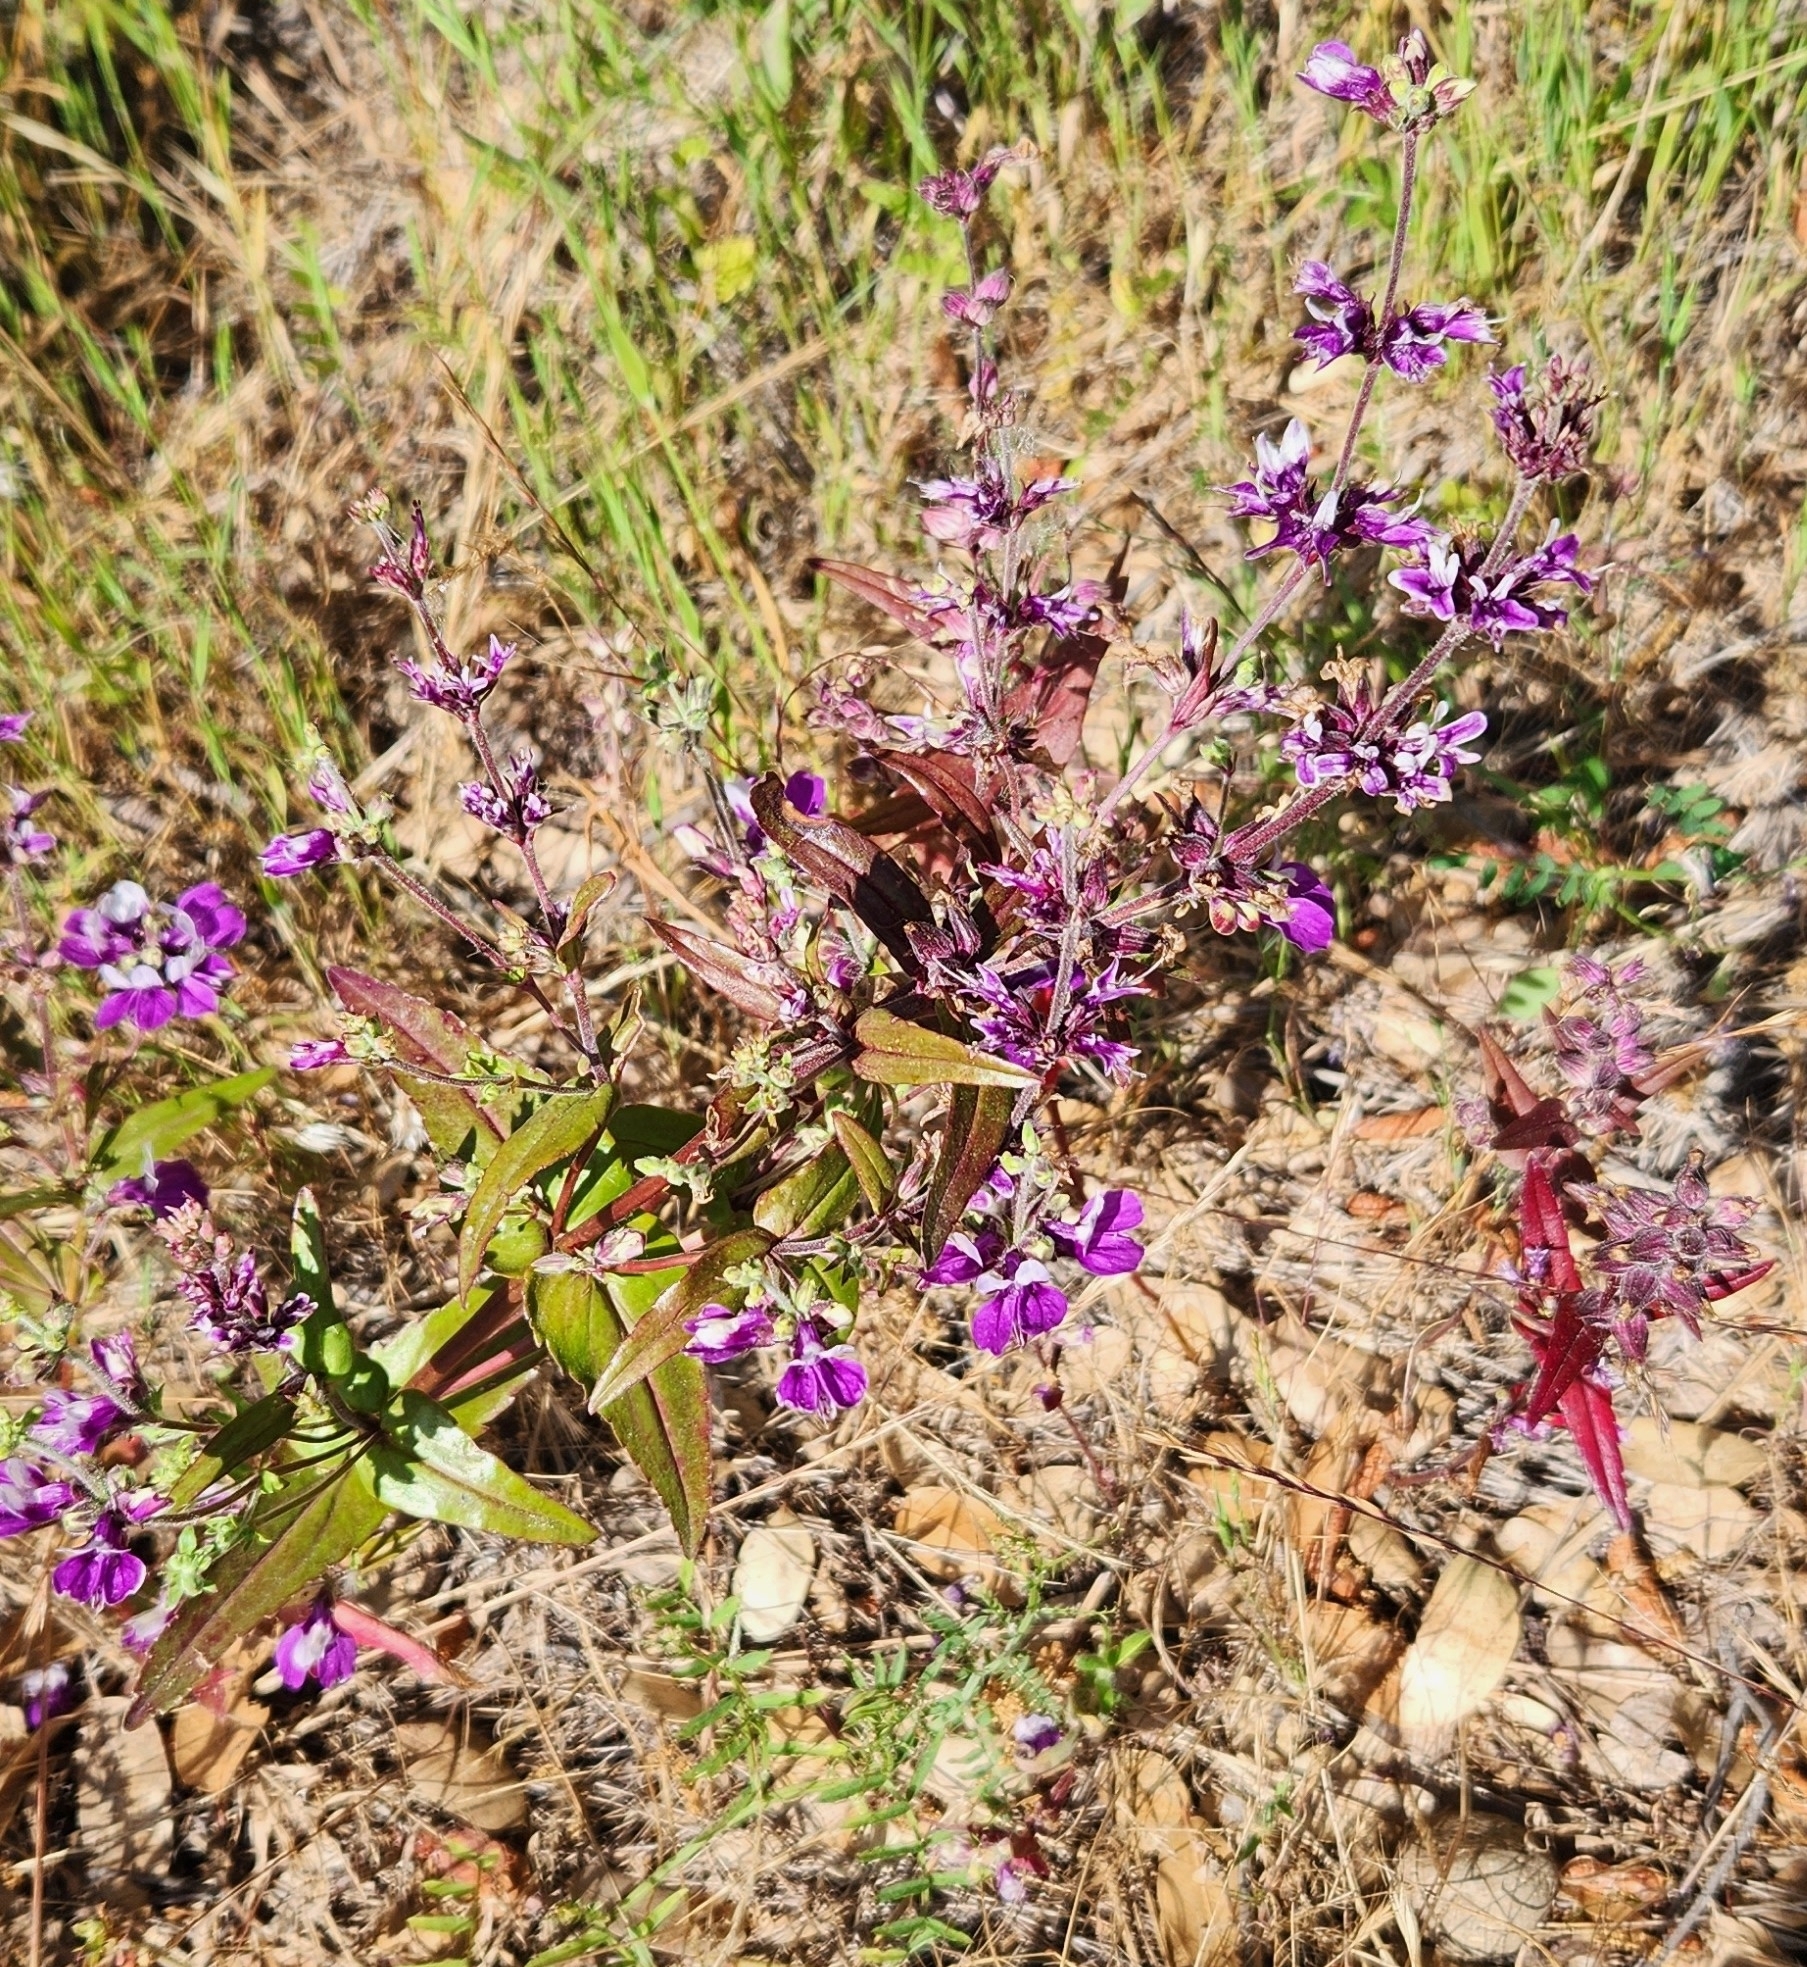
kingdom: Plantae
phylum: Tracheophyta
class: Magnoliopsida
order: Lamiales
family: Plantaginaceae
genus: Collinsia
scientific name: Collinsia heterophylla
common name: Chinese-houses
